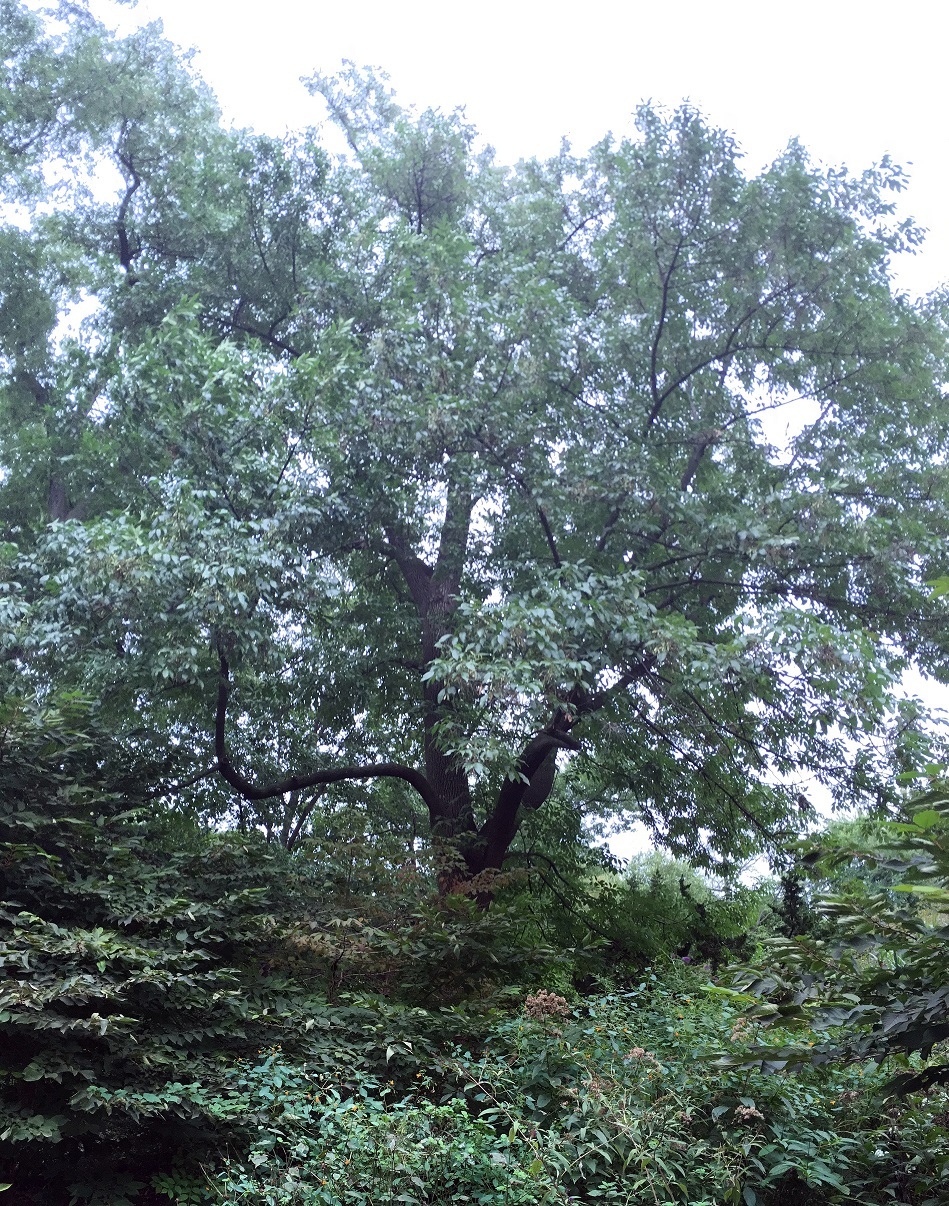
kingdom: Plantae
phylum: Tracheophyta
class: Magnoliopsida
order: Lamiales
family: Oleaceae
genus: Fraxinus
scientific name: Fraxinus profunda
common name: Pumpkin ash
